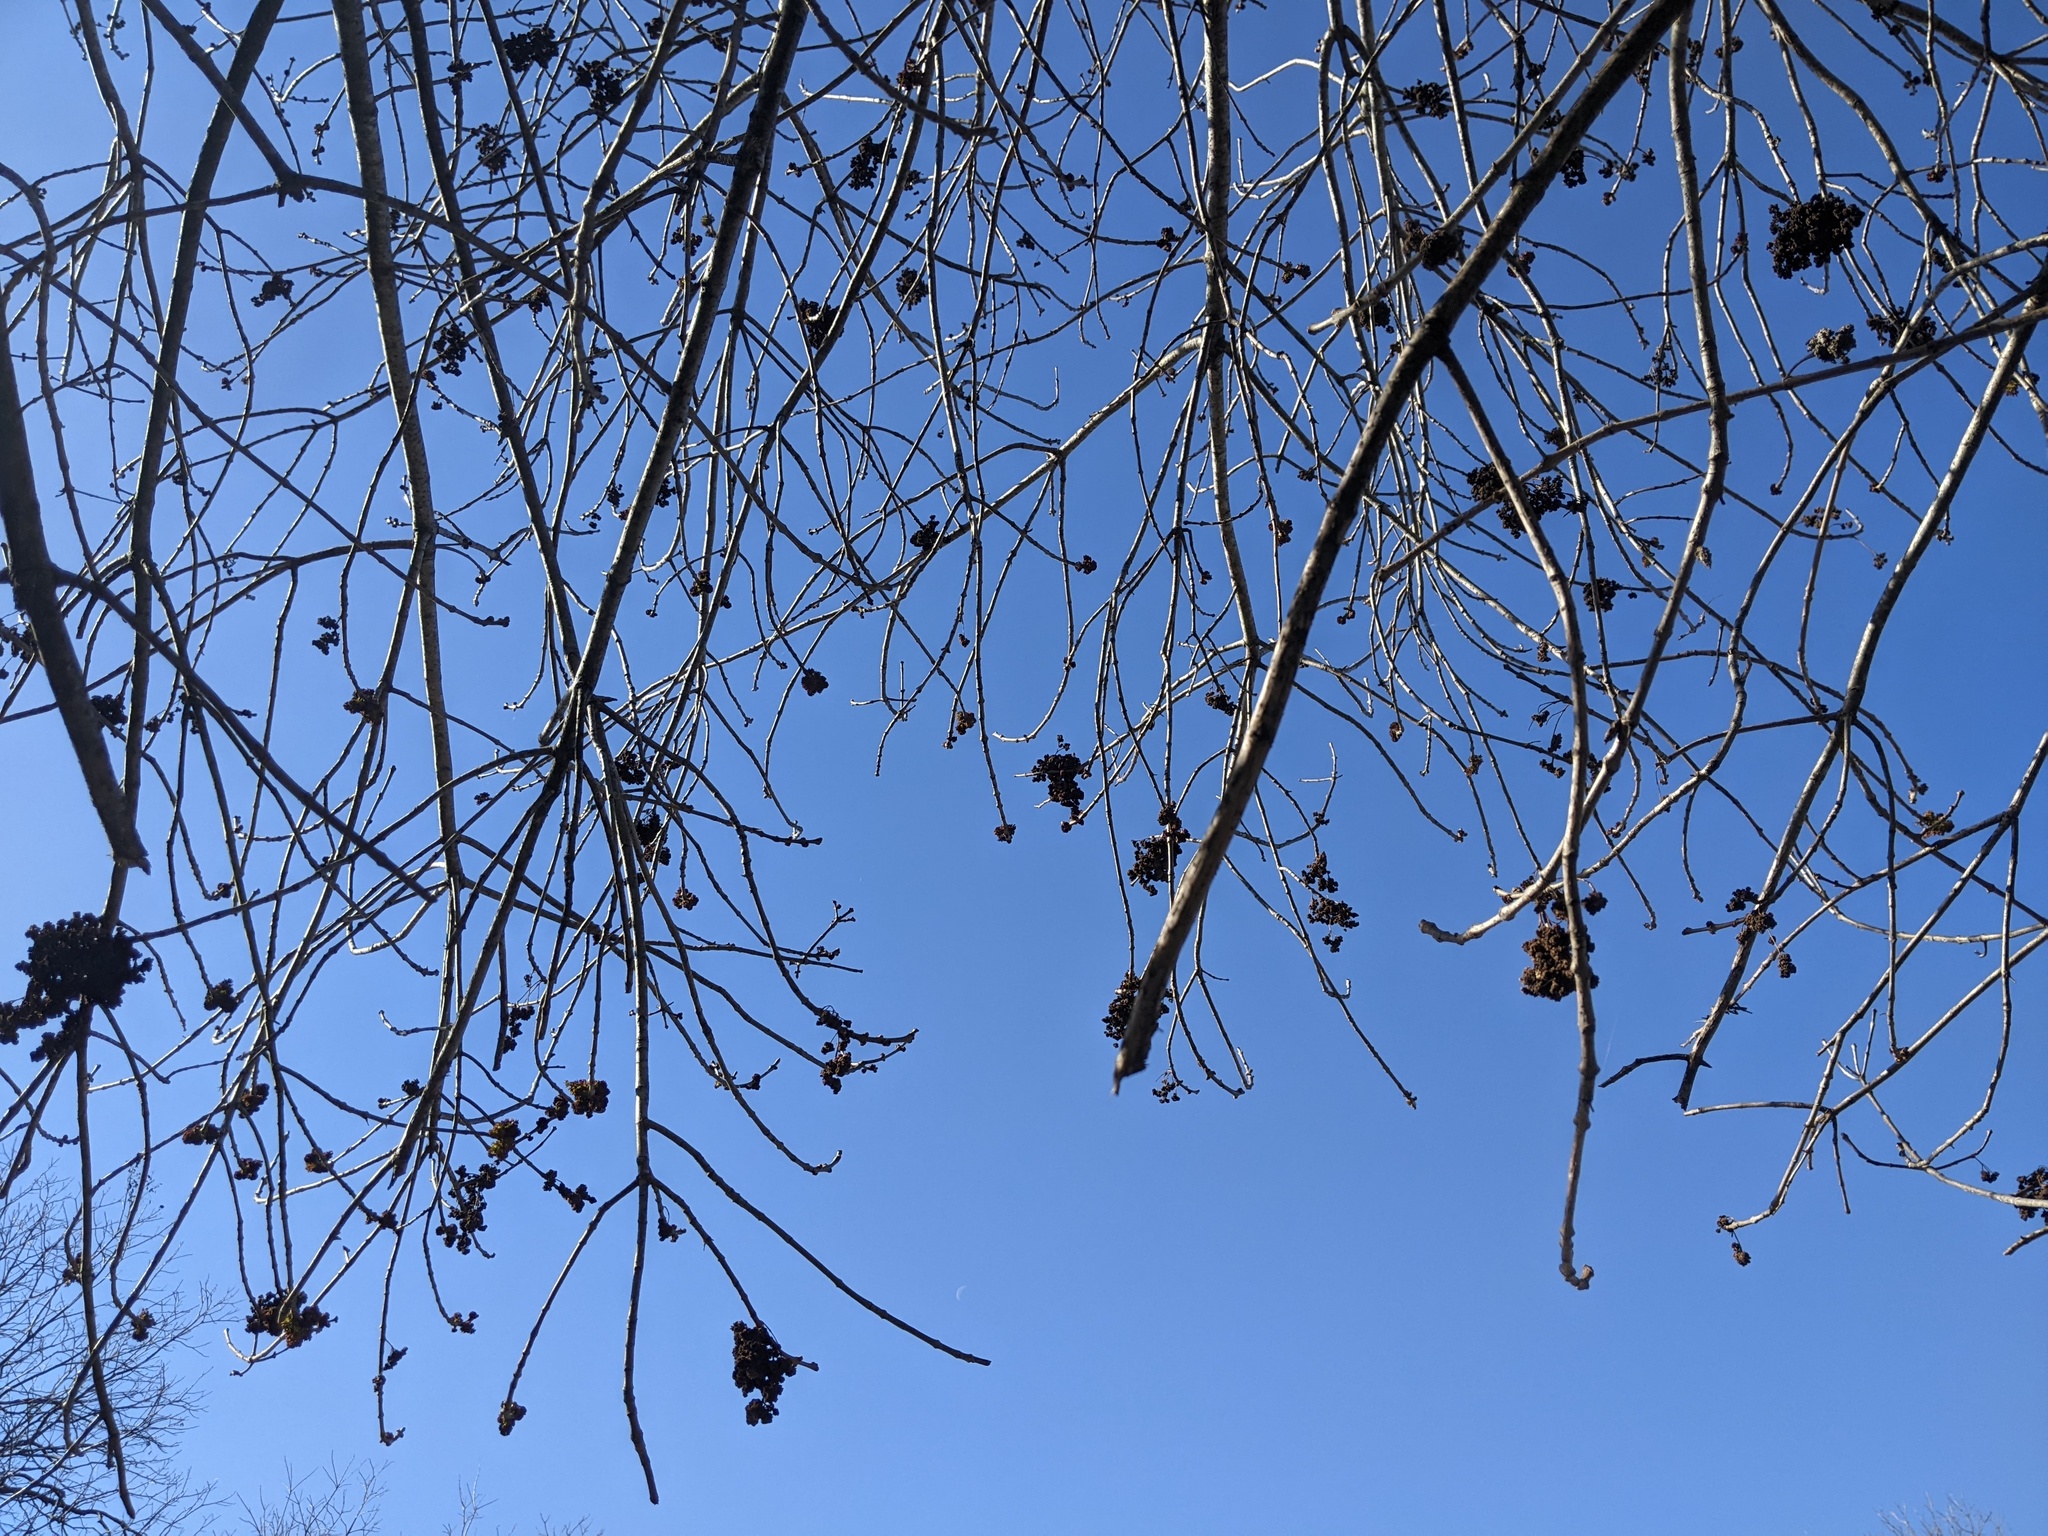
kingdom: Animalia
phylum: Arthropoda
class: Arachnida
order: Trombidiformes
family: Eriophyidae
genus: Aceria
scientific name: Aceria fraxiniflora
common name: Ash flower gall mite
